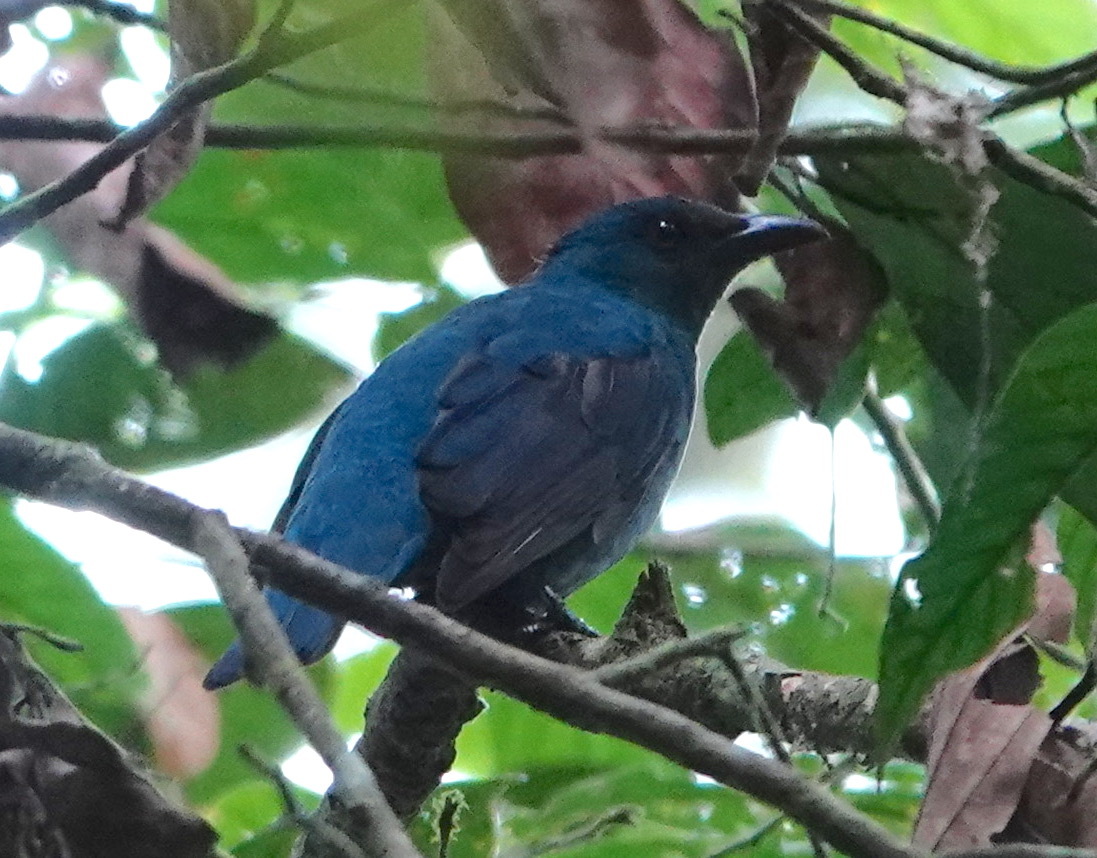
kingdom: Animalia
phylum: Chordata
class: Aves
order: Passeriformes
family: Irenidae
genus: Irena
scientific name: Irena puella
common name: Asian fairy-bluebird
